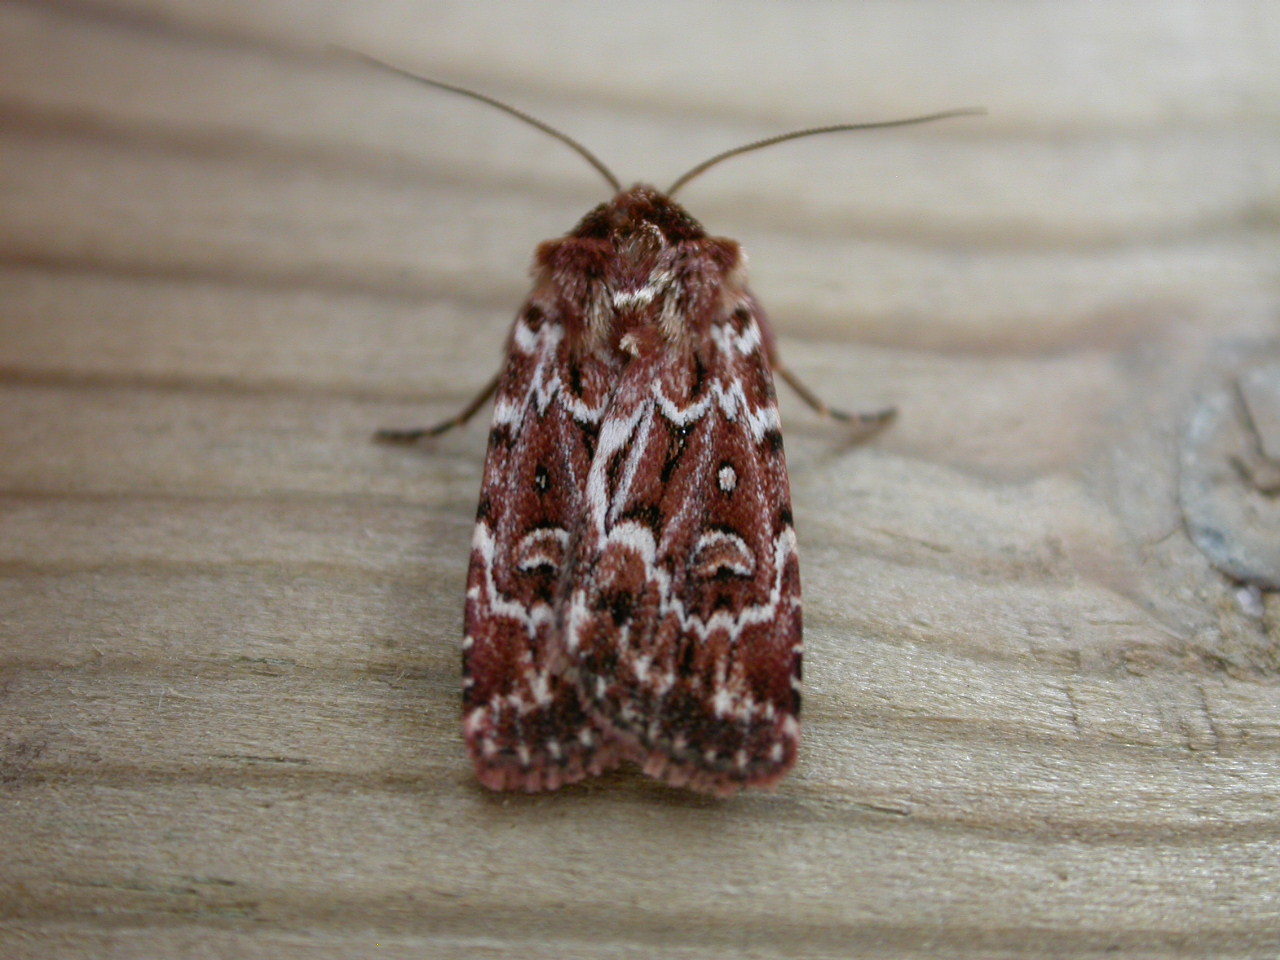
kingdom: Animalia
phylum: Arthropoda
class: Insecta
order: Lepidoptera
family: Noctuidae
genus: Lycophotia
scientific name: Lycophotia porphyrea
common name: True lover's knot
